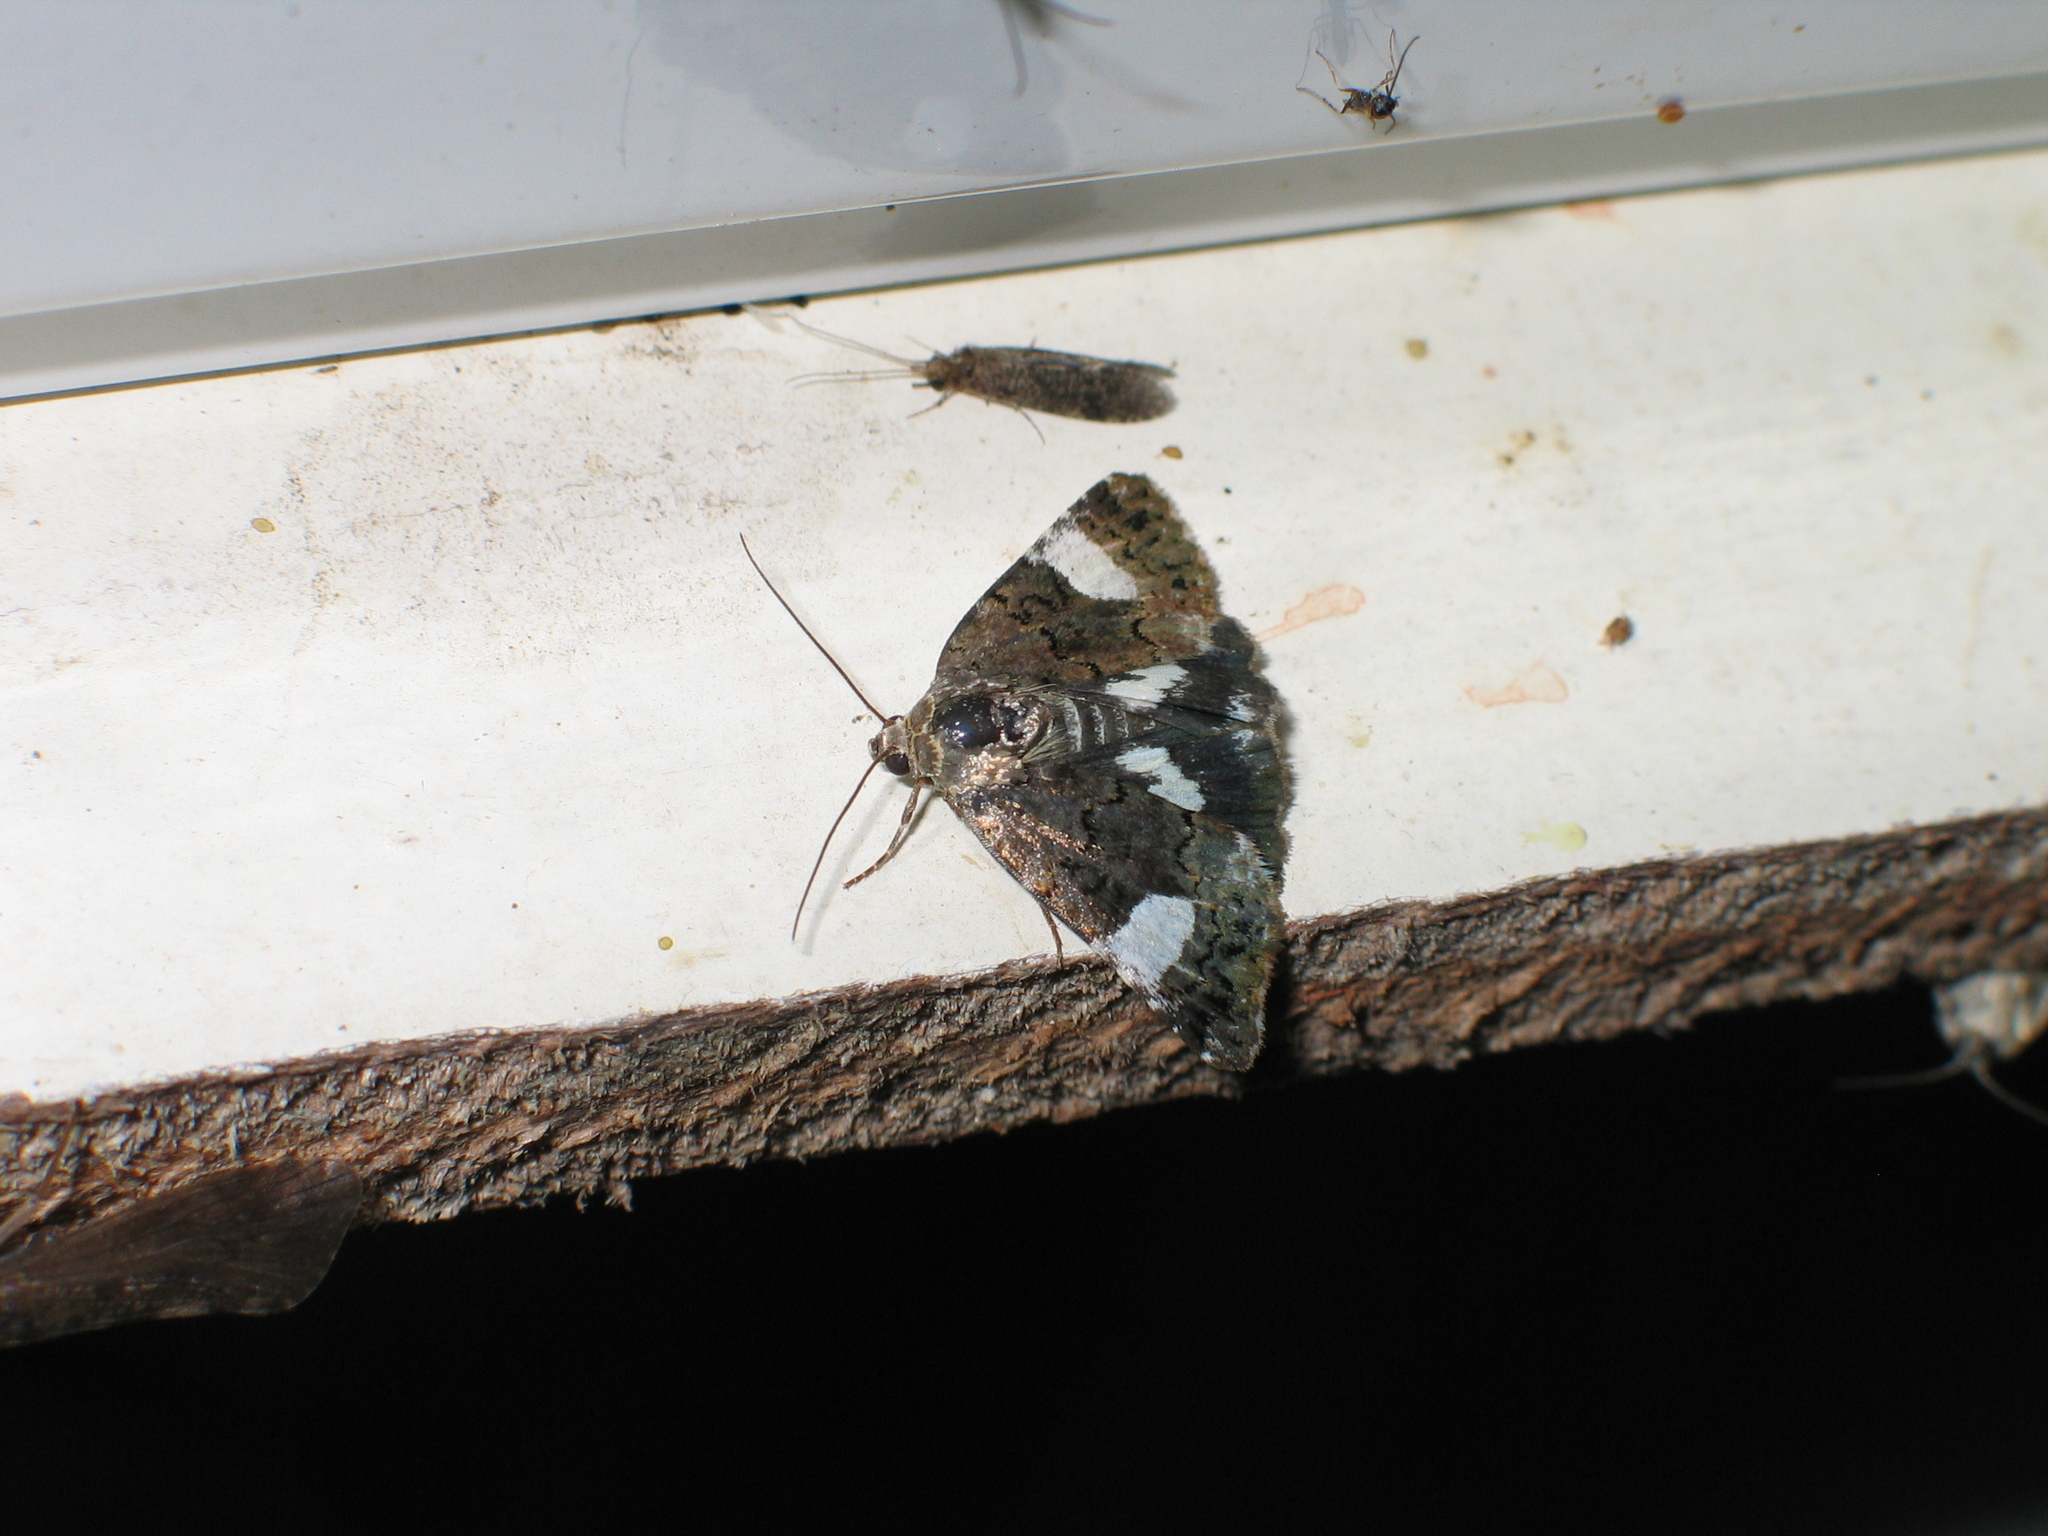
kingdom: Animalia
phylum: Arthropoda
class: Insecta
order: Lepidoptera
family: Erebidae
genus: Tyta
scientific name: Tyta luctuosa
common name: Four-spotted
